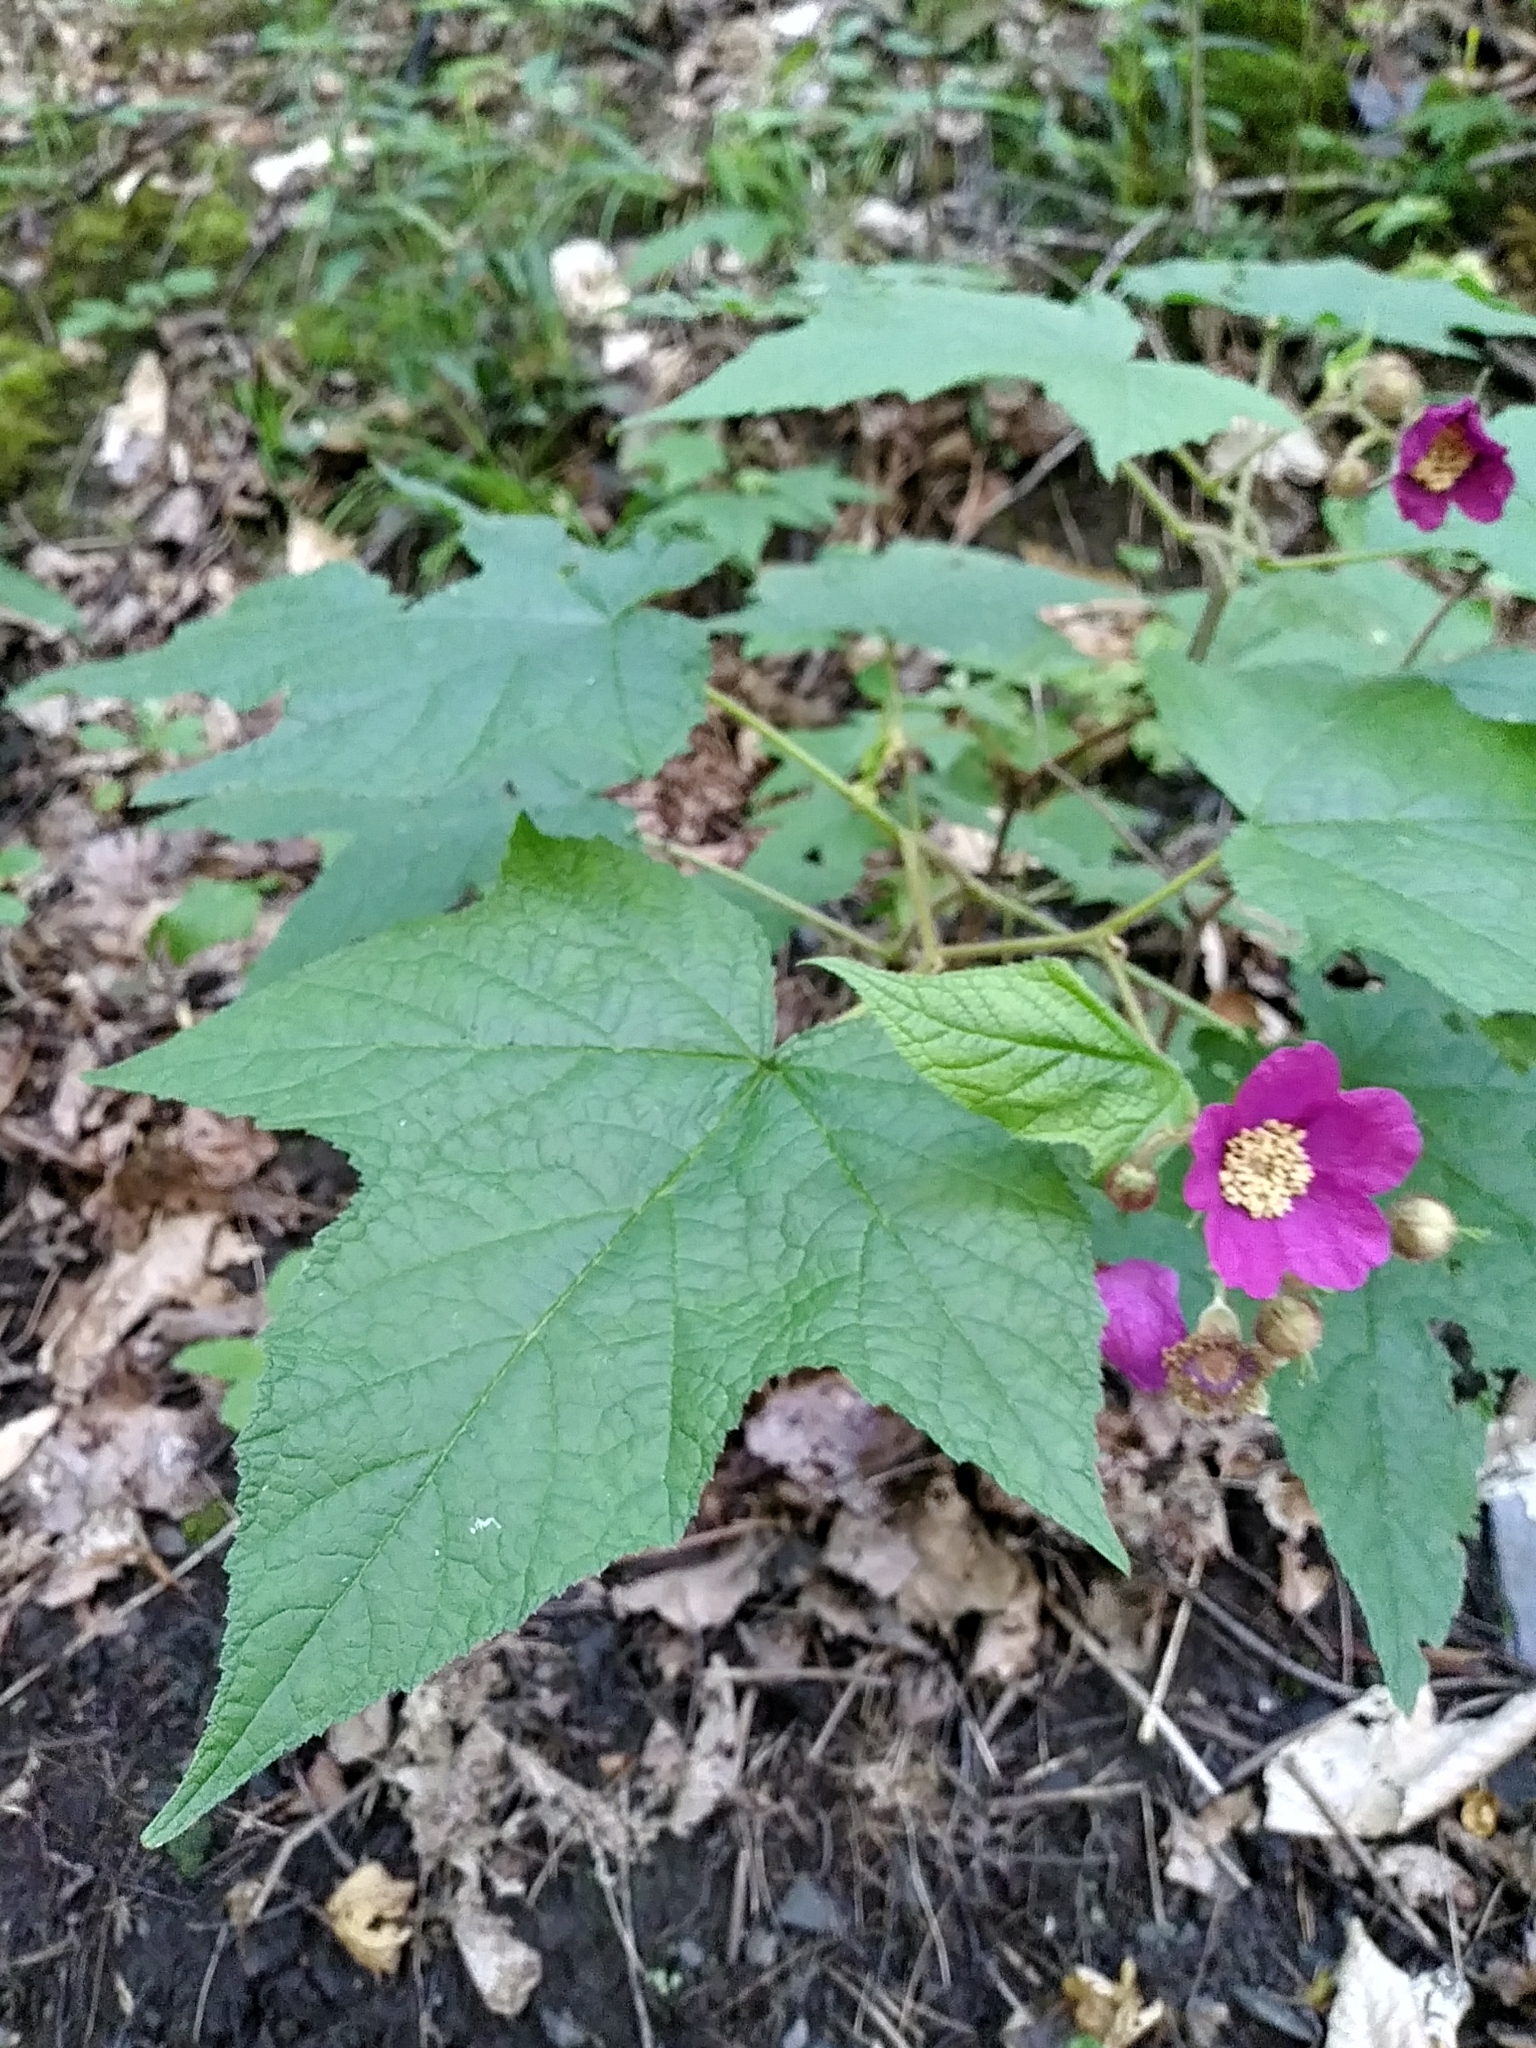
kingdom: Plantae
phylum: Tracheophyta
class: Magnoliopsida
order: Rosales
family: Rosaceae
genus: Rubus
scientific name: Rubus odoratus
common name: Purple-flowered raspberry
